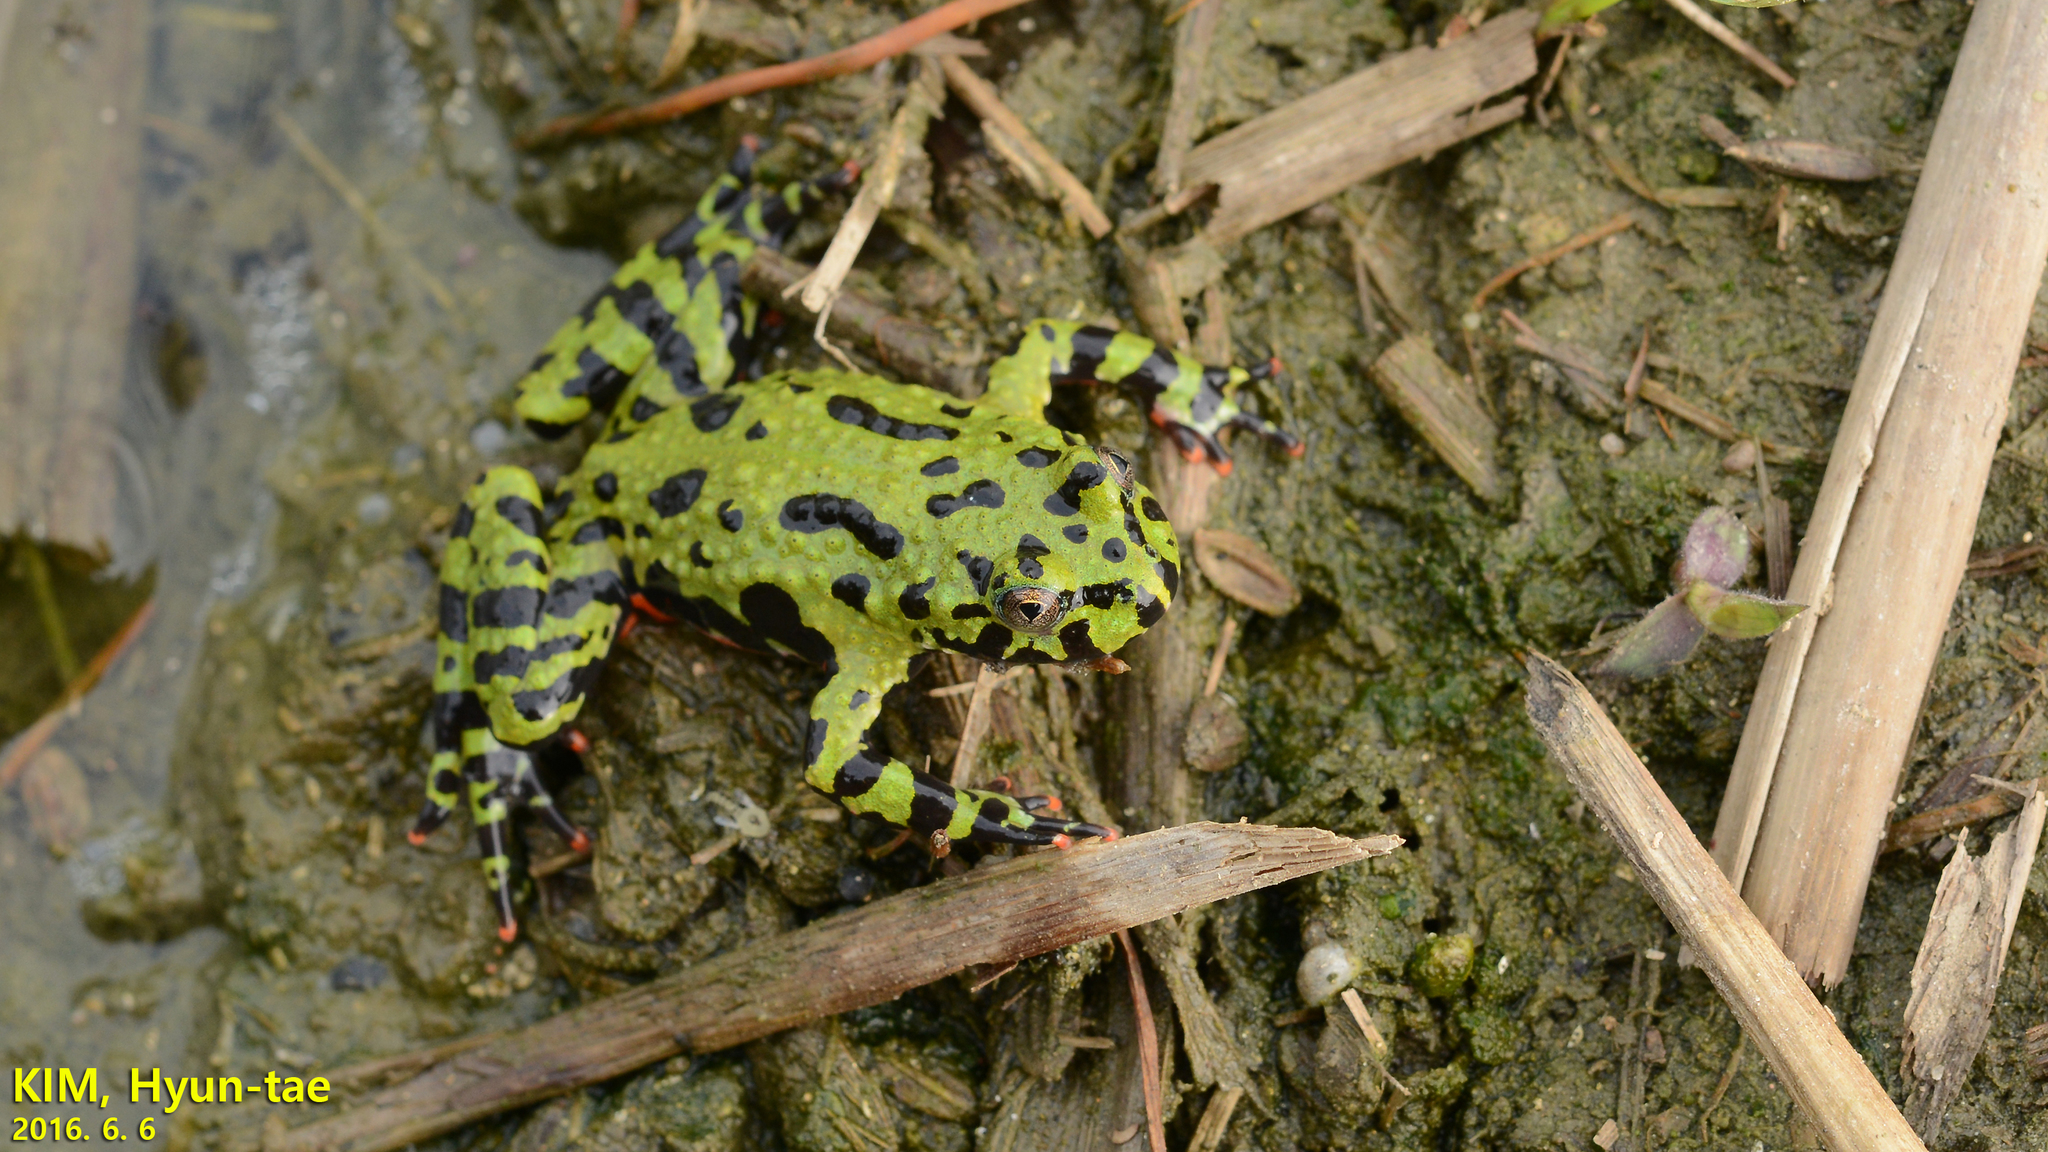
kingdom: Animalia
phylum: Chordata
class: Amphibia
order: Anura
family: Bombinatoridae
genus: Bombina
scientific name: Bombina orientalis
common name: Oriental firebelly toad
